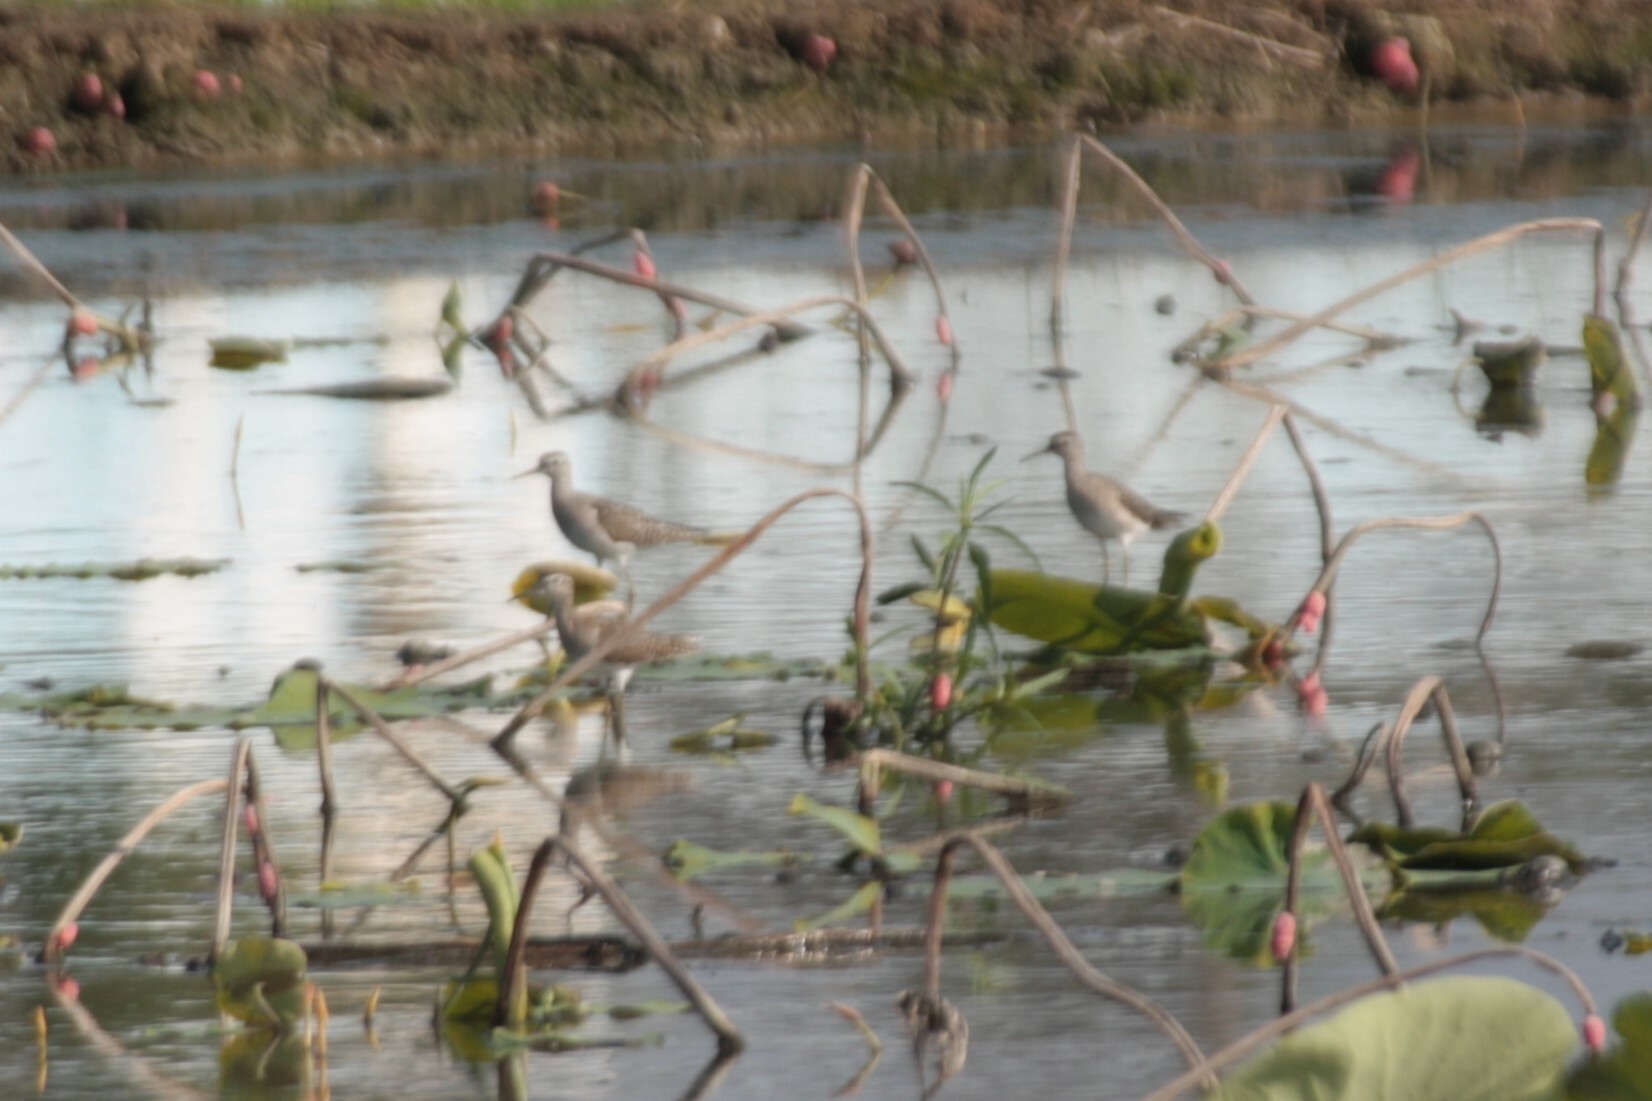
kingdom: Animalia
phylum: Chordata
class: Aves
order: Charadriiformes
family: Scolopacidae
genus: Tringa
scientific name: Tringa glareola
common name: Wood sandpiper
